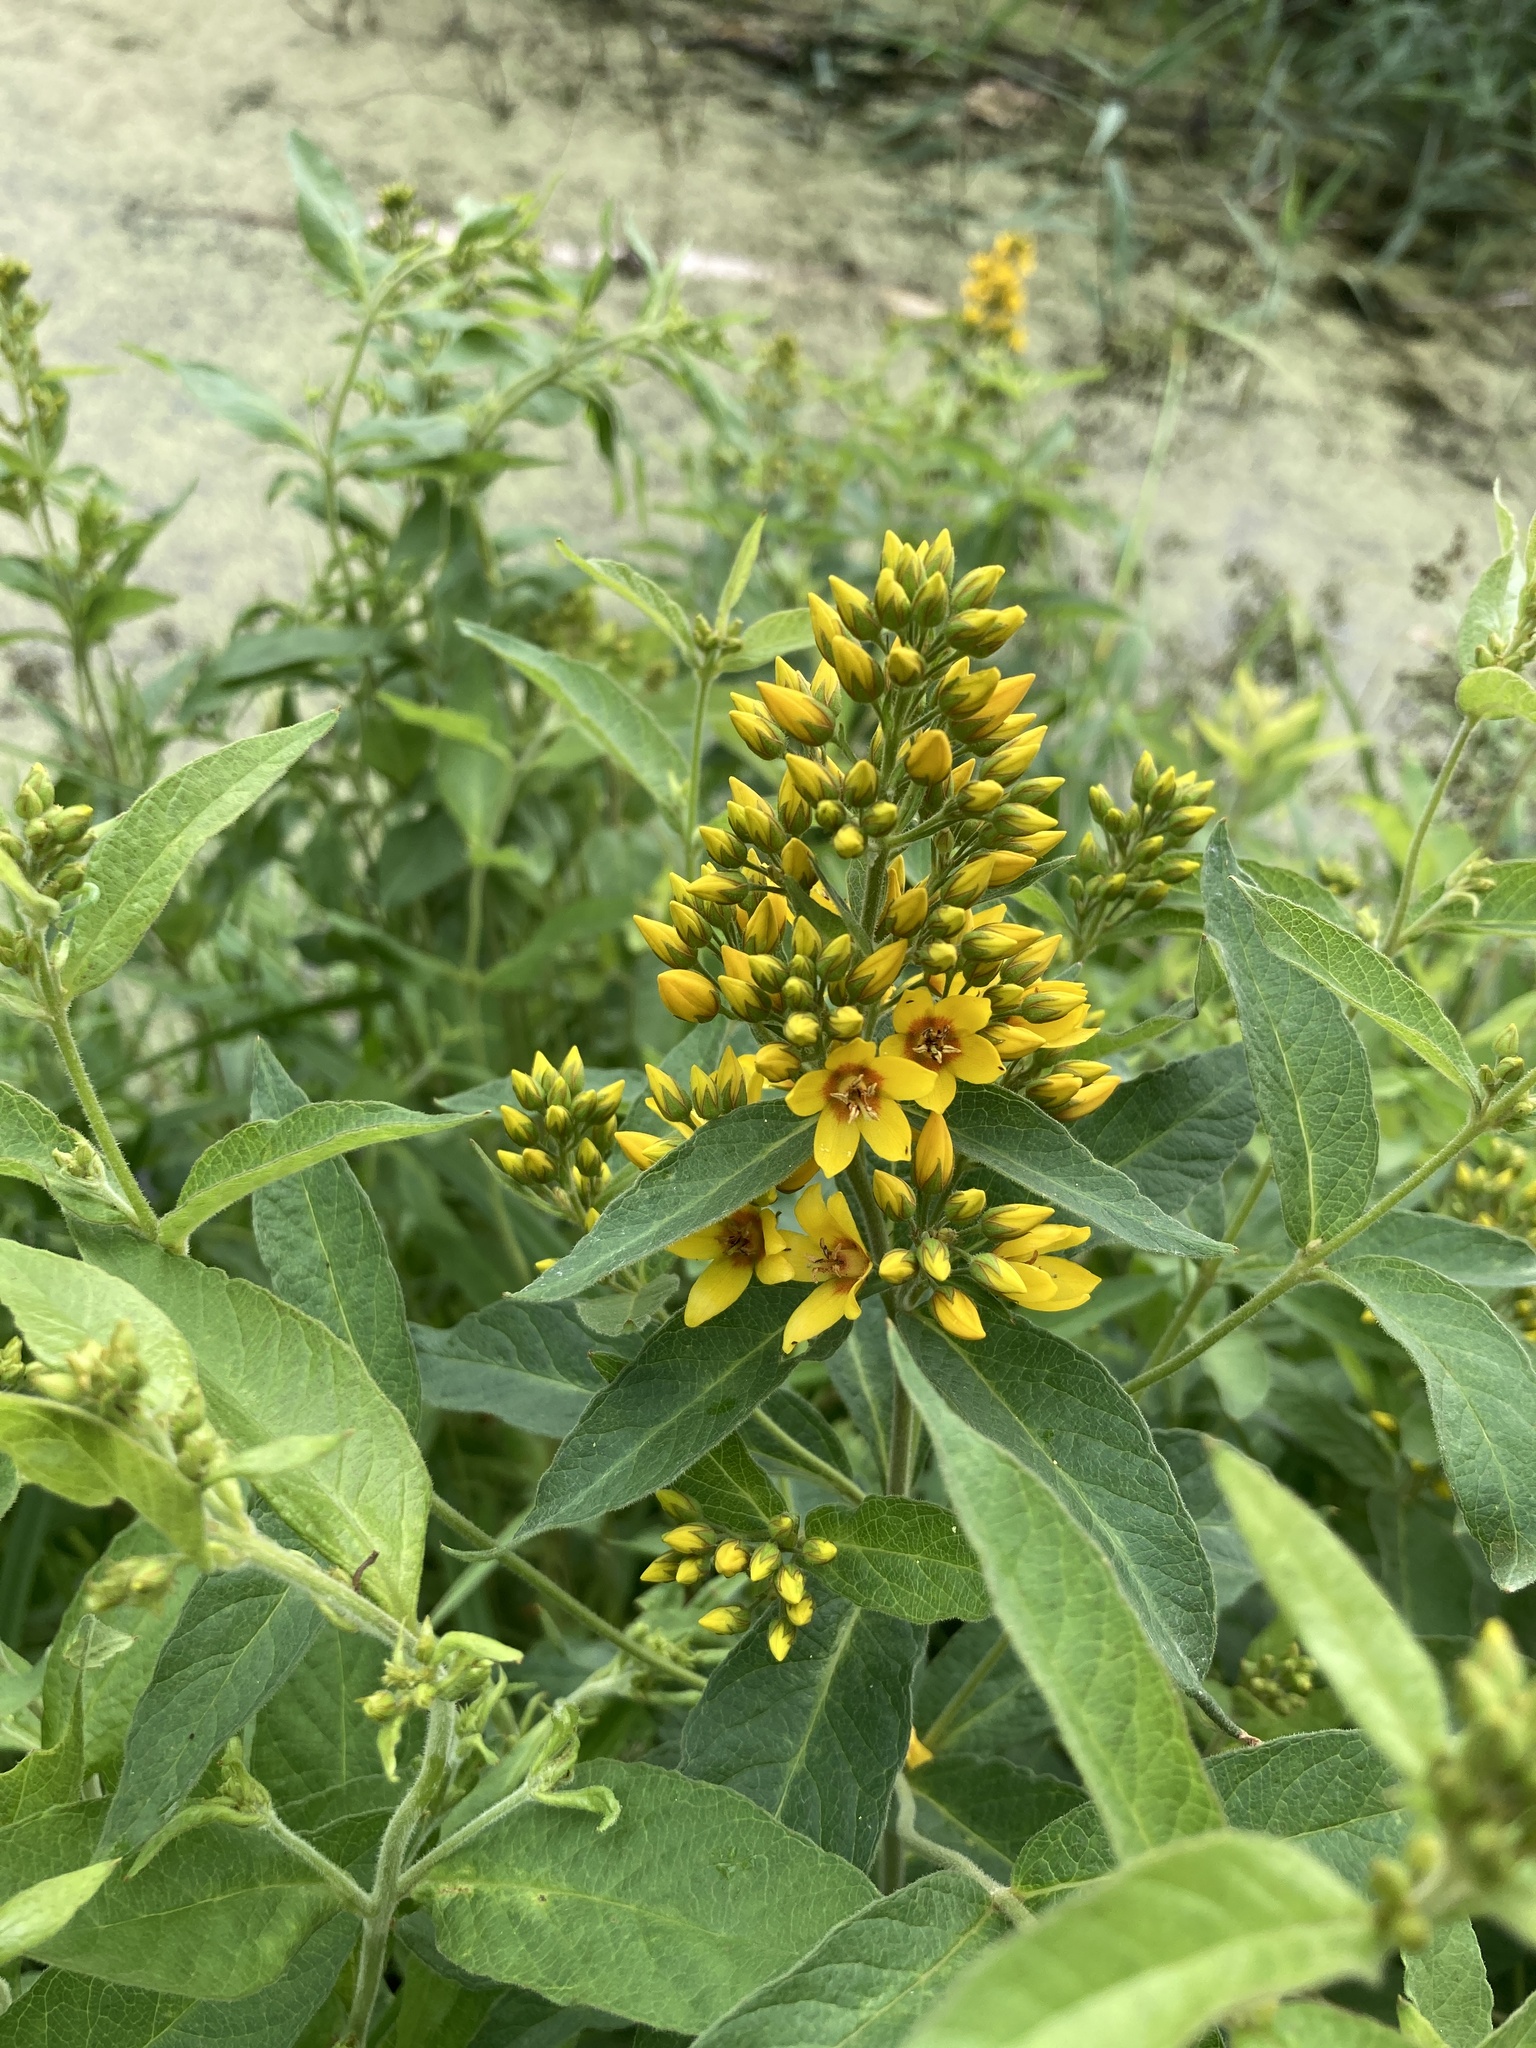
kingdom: Plantae
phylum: Tracheophyta
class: Magnoliopsida
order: Ericales
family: Primulaceae
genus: Lysimachia
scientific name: Lysimachia vulgaris
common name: Yellow loosestrife
